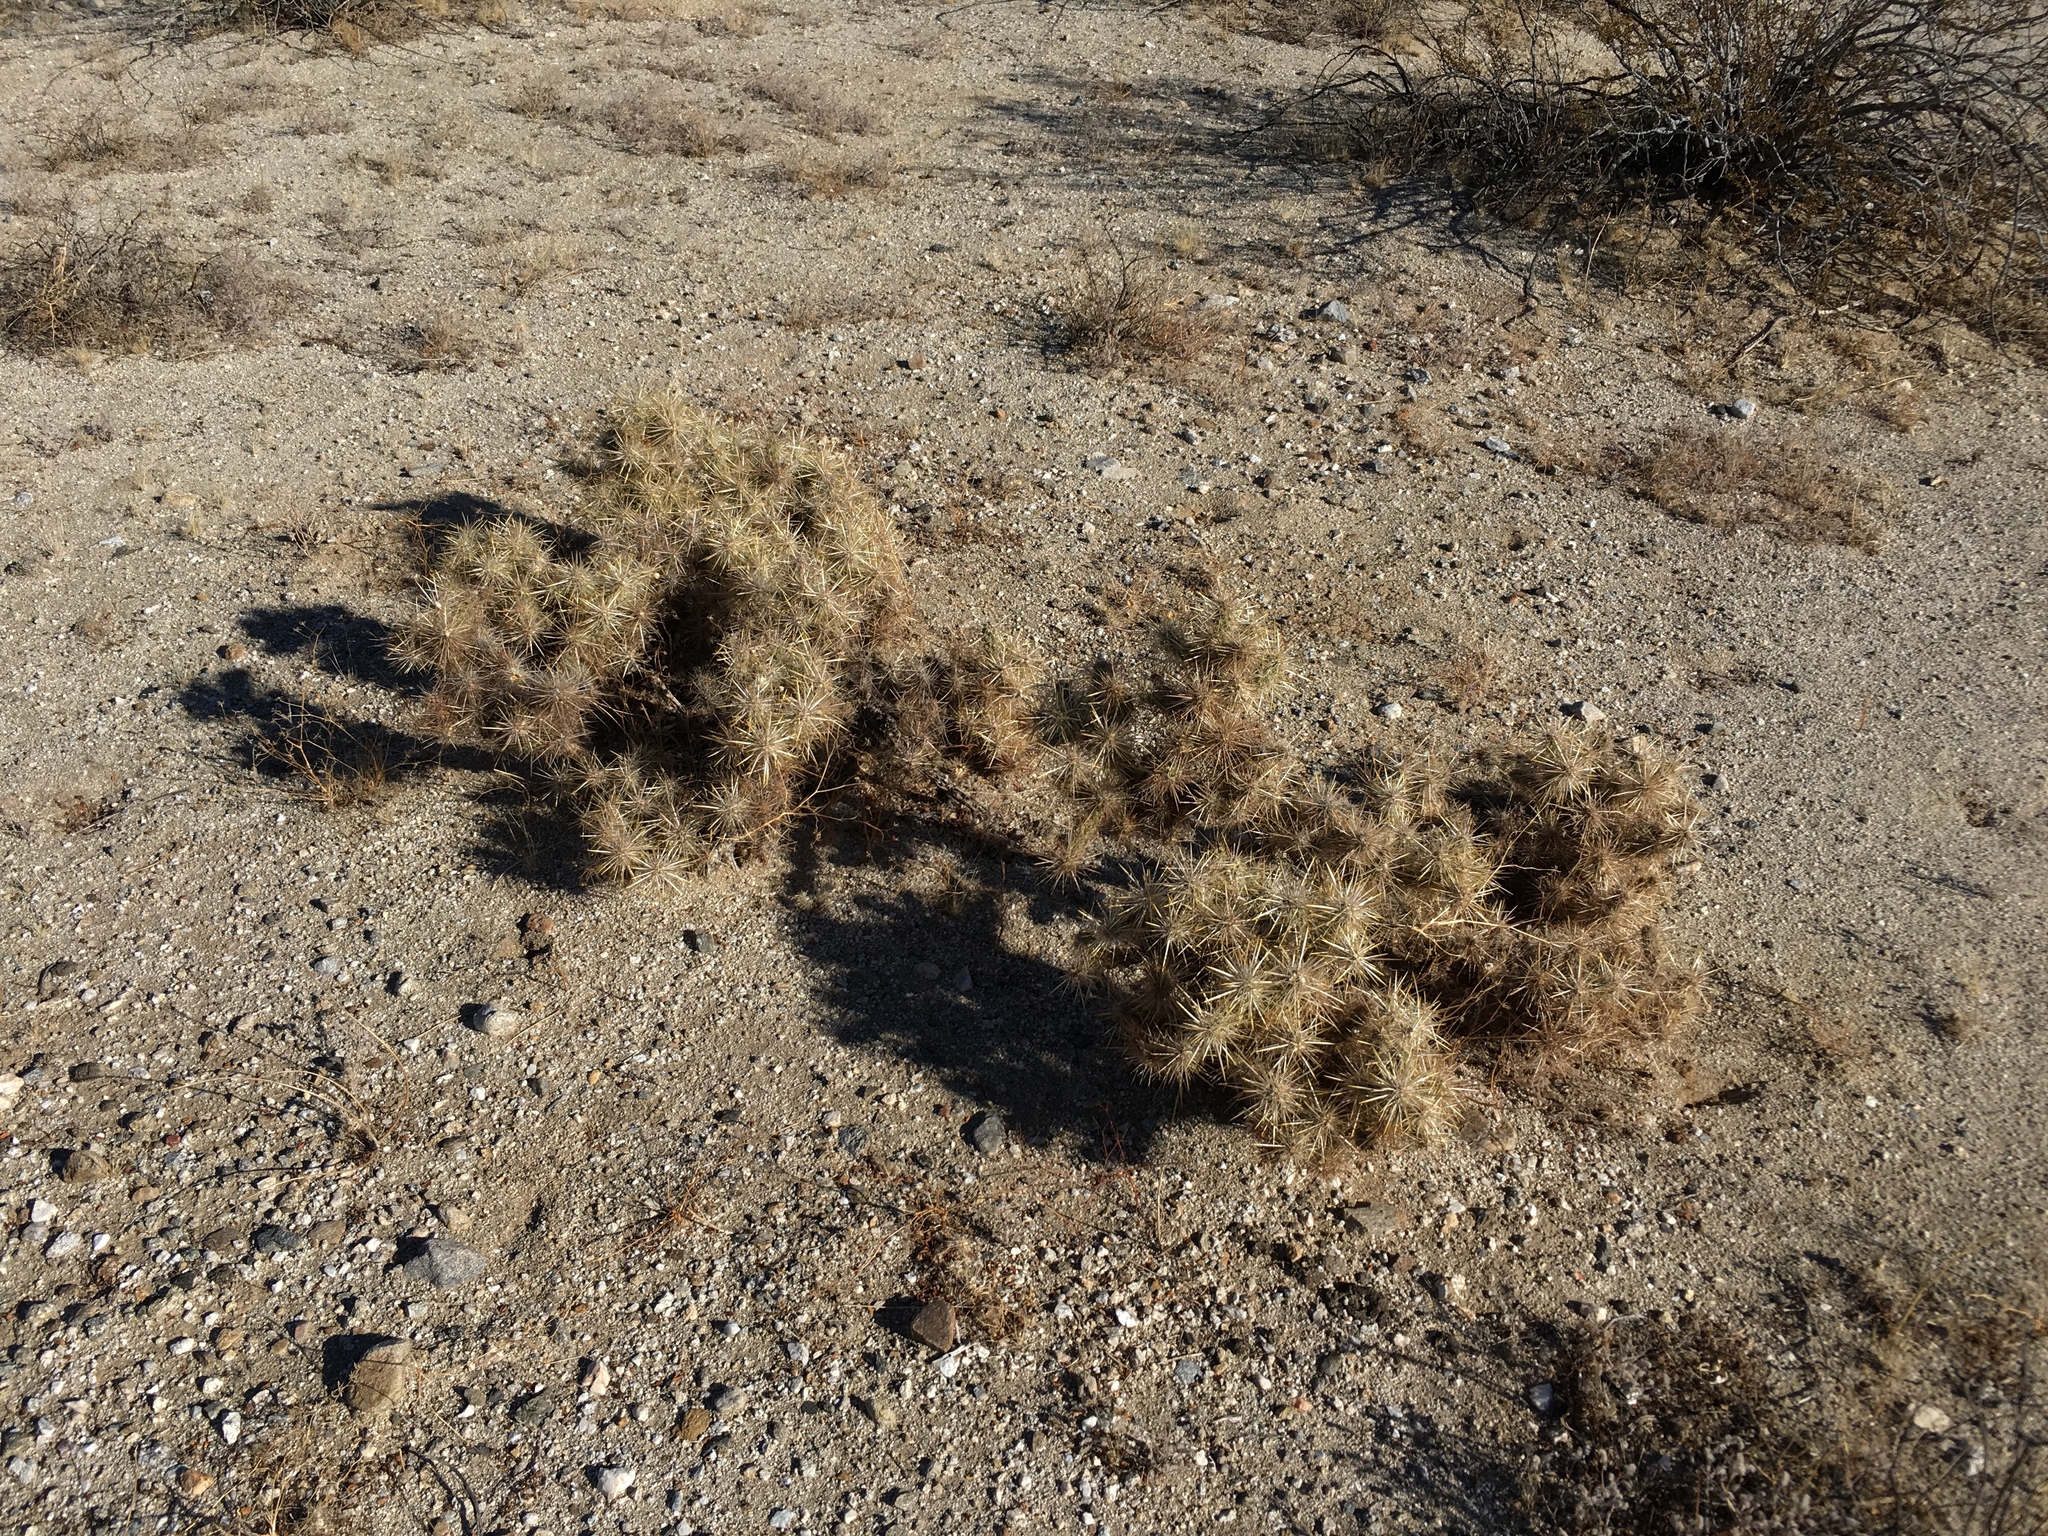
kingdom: Plantae
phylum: Tracheophyta
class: Magnoliopsida
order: Caryophyllales
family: Cactaceae
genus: Cylindropuntia
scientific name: Cylindropuntia echinocarpa
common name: Ground cholla
